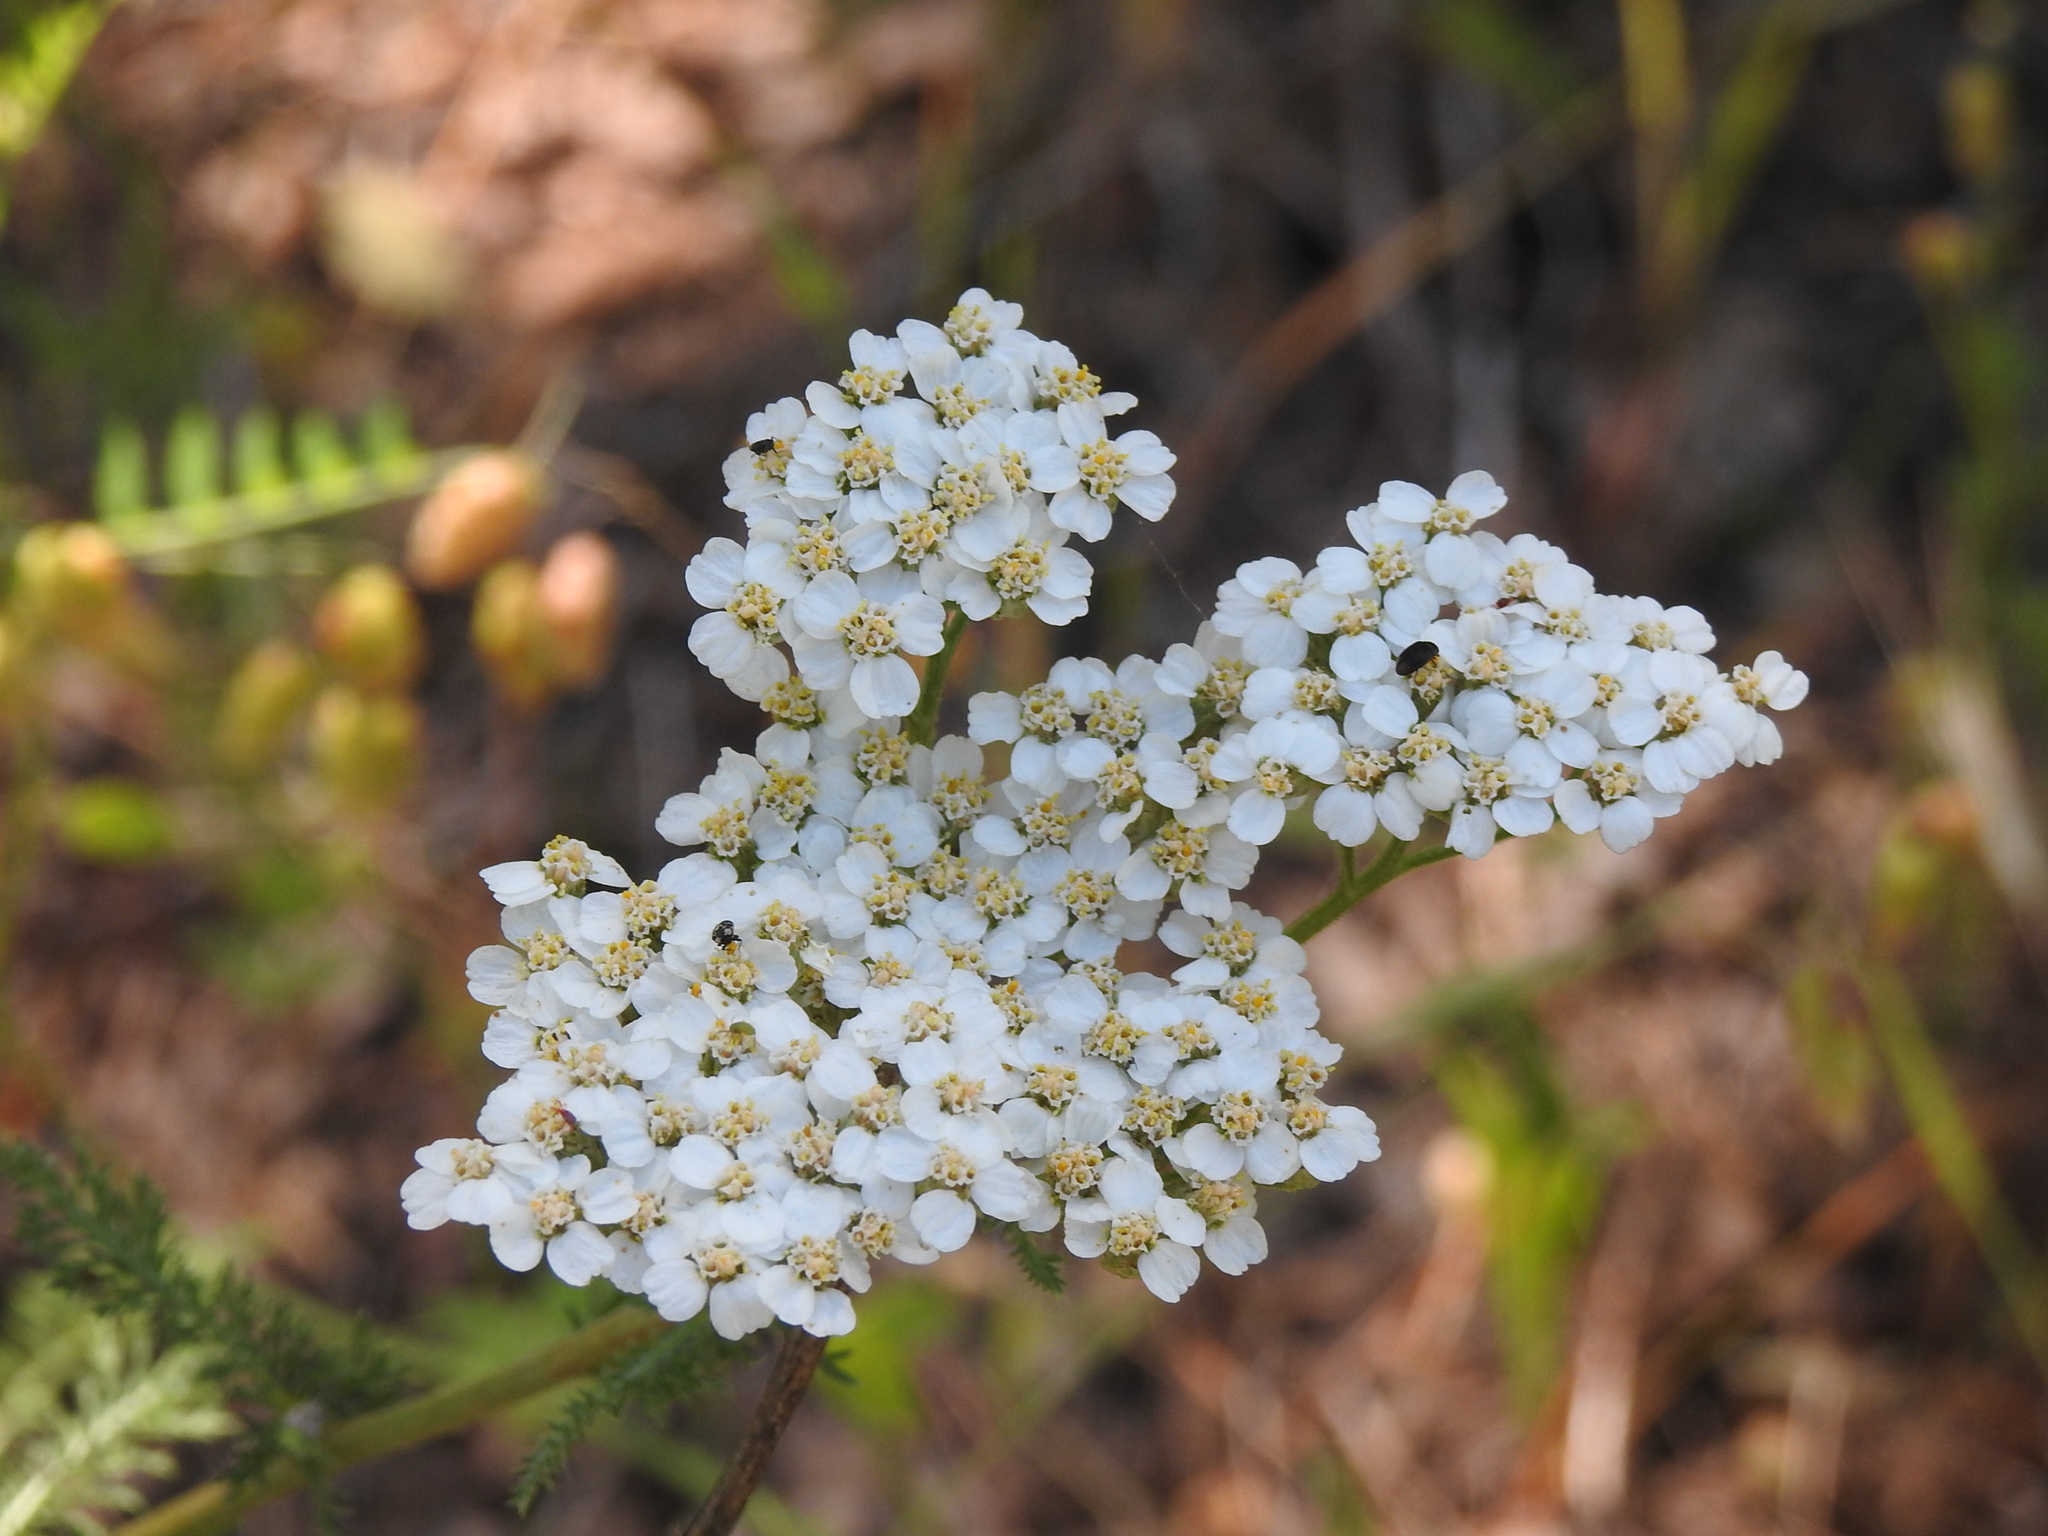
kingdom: Plantae
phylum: Tracheophyta
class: Magnoliopsida
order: Asterales
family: Asteraceae
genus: Achillea
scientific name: Achillea millefolium
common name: Yarrow
